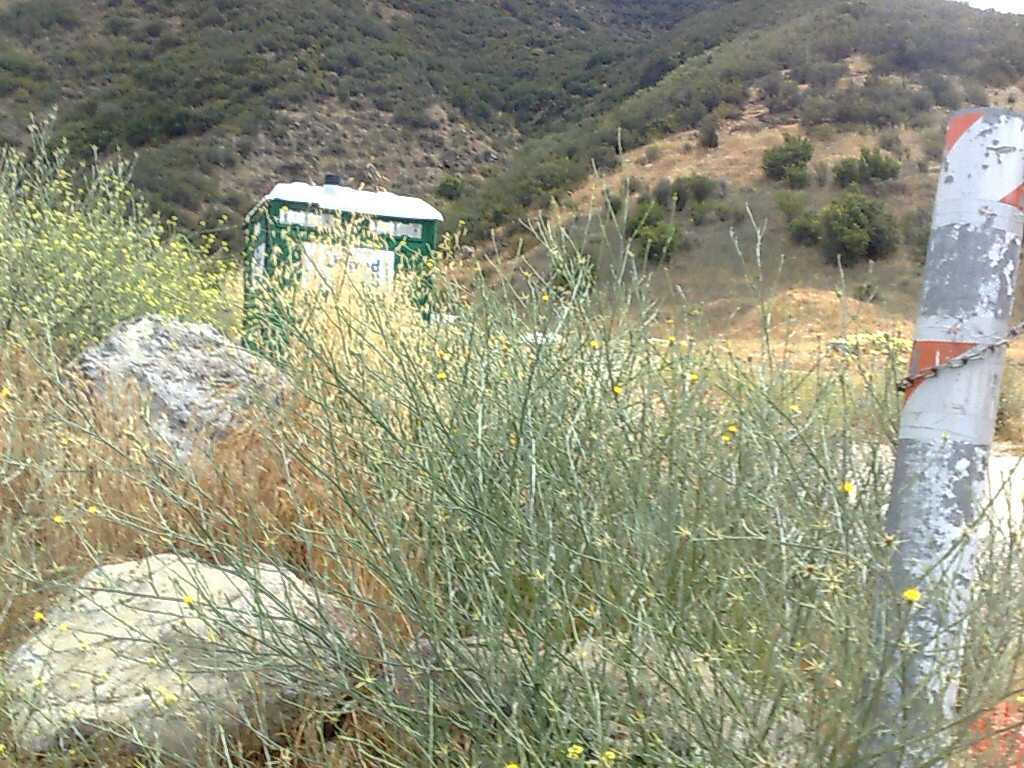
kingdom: Plantae
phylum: Tracheophyta
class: Magnoliopsida
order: Brassicales
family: Brassicaceae
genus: Hirschfeldia
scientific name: Hirschfeldia incana
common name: Hoary mustard
